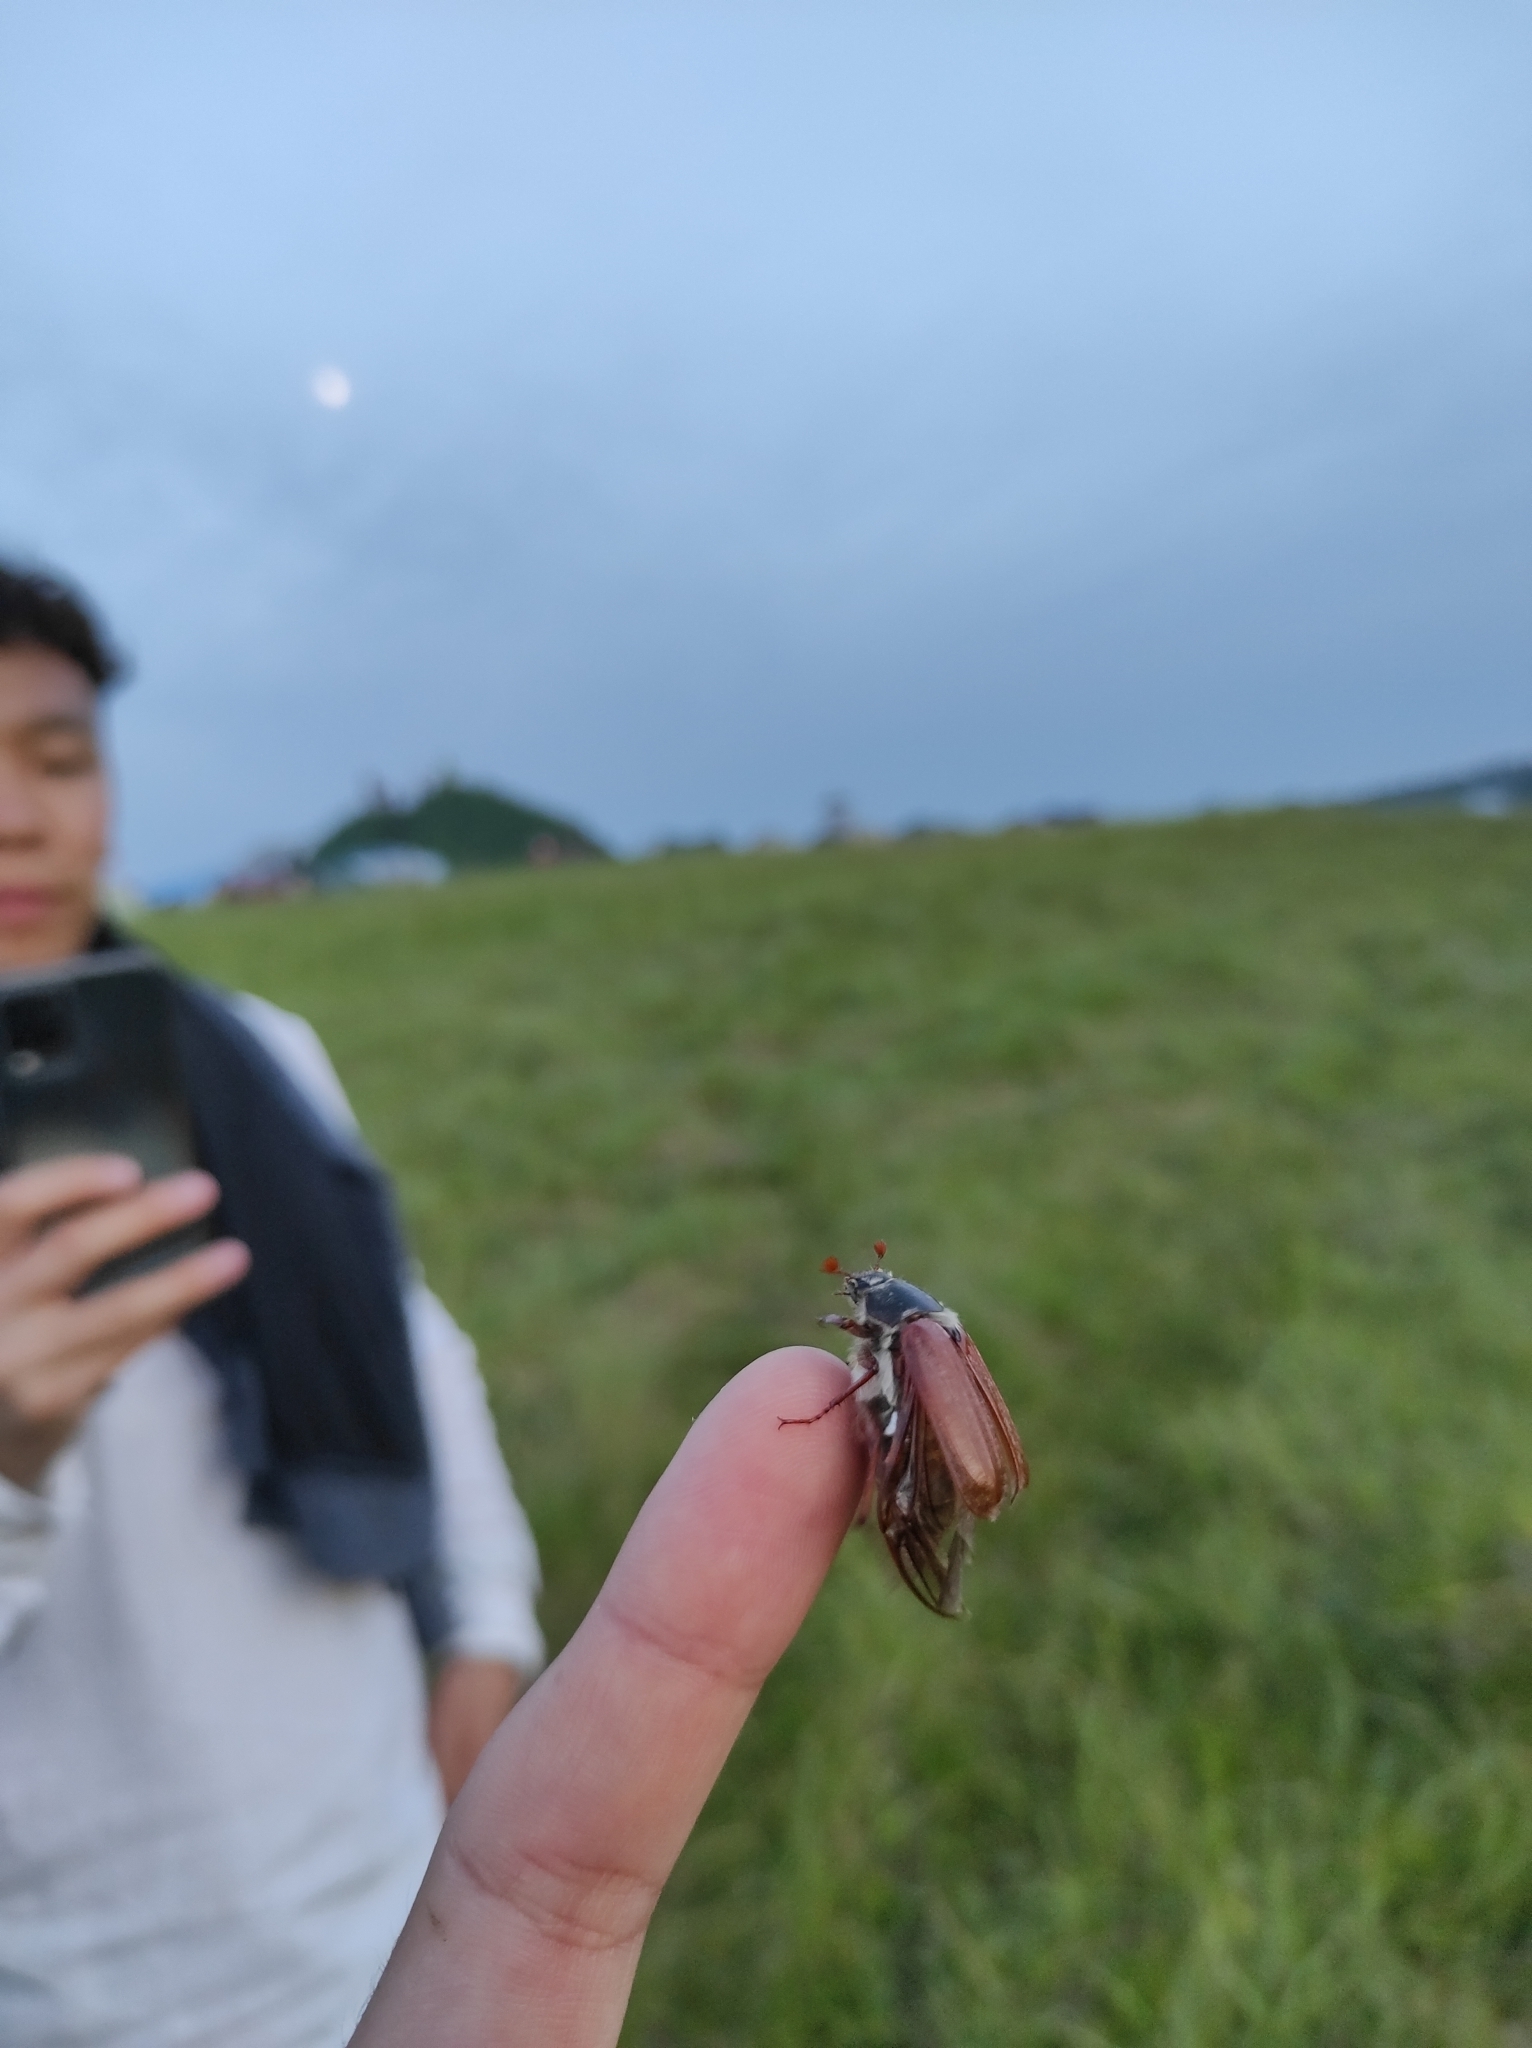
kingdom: Animalia
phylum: Arthropoda
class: Insecta
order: Coleoptera
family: Scarabaeidae
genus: Melolontha
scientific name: Melolontha melolontha
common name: Cockchafer maybeetle
